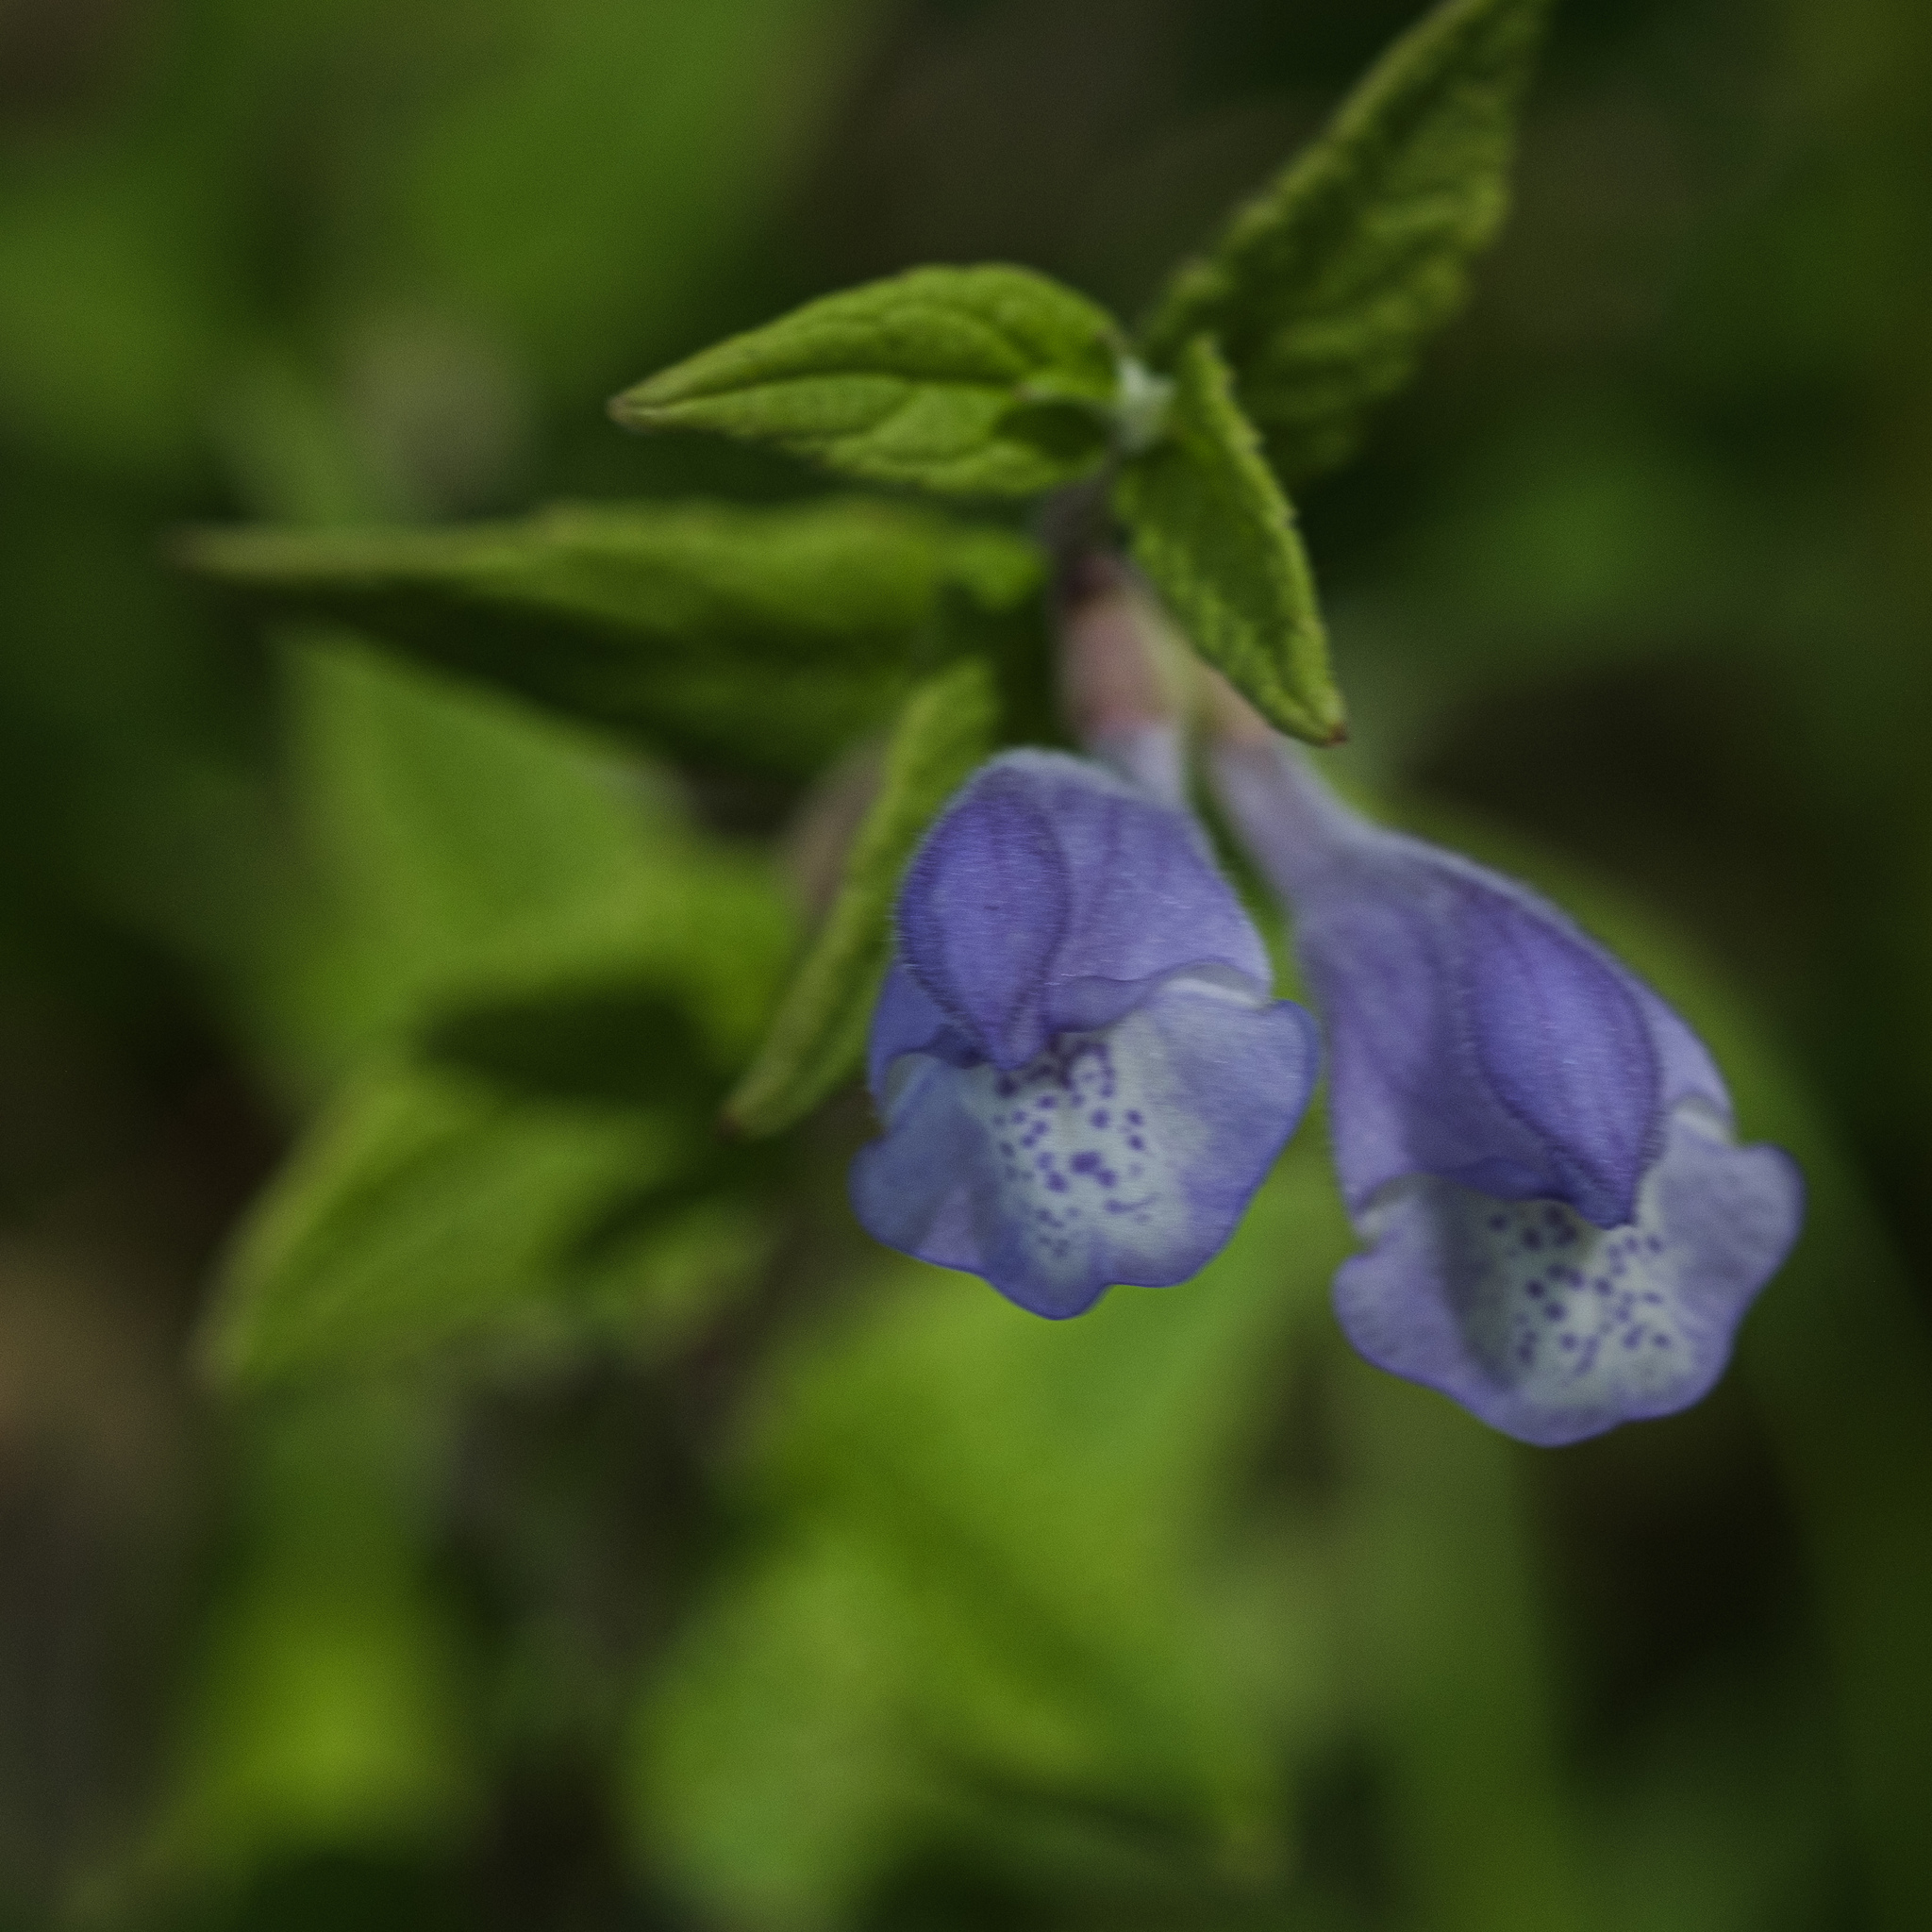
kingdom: Plantae
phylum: Tracheophyta
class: Magnoliopsida
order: Lamiales
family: Lamiaceae
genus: Scutellaria
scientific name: Scutellaria galericulata
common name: Skullcap
